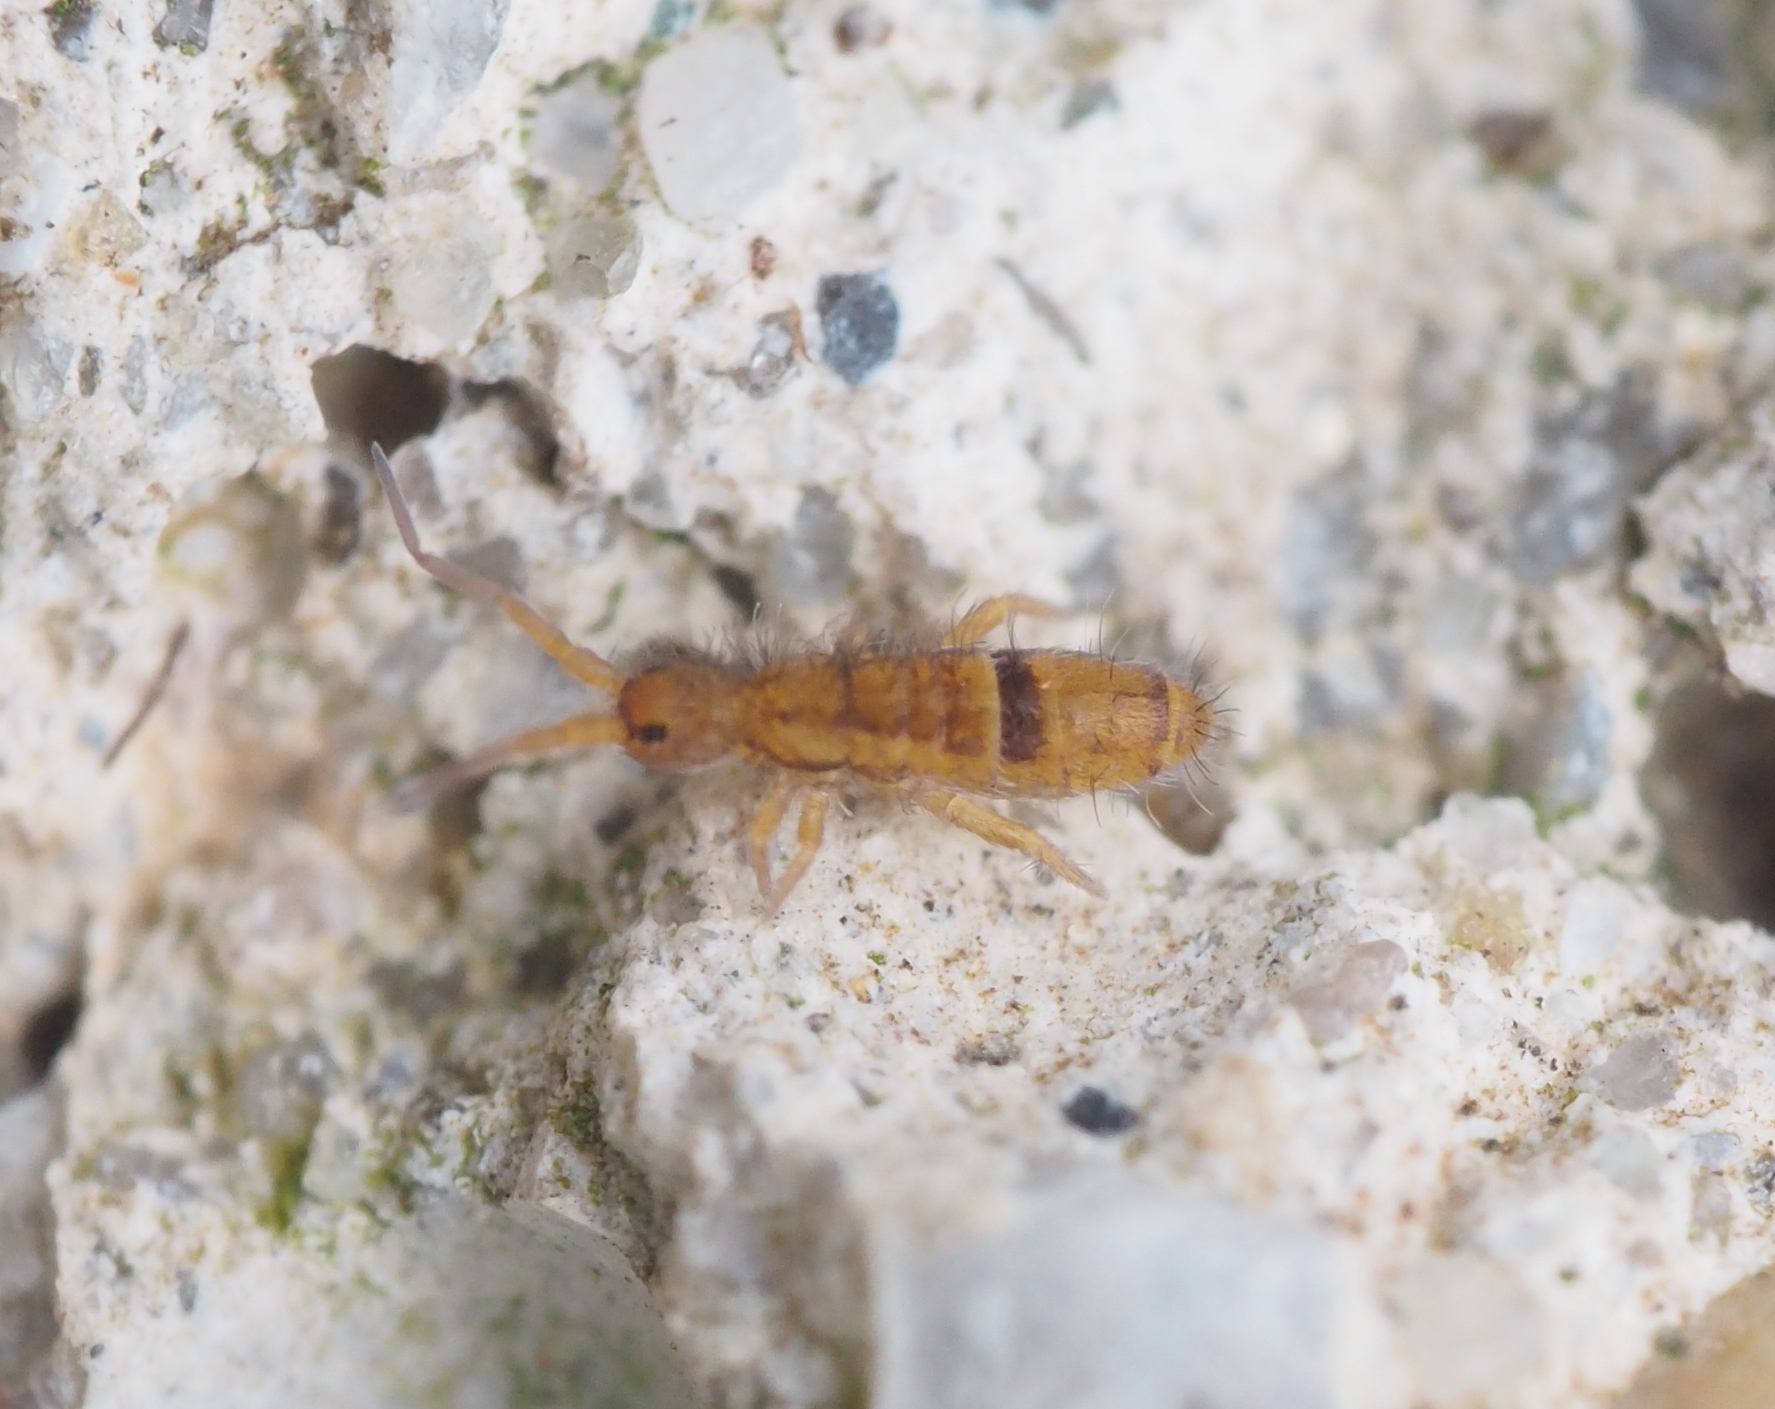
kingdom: Animalia
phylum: Arthropoda
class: Collembola
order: Entomobryomorpha
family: Orchesellidae
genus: Orchesella
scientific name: Orchesella cincta
